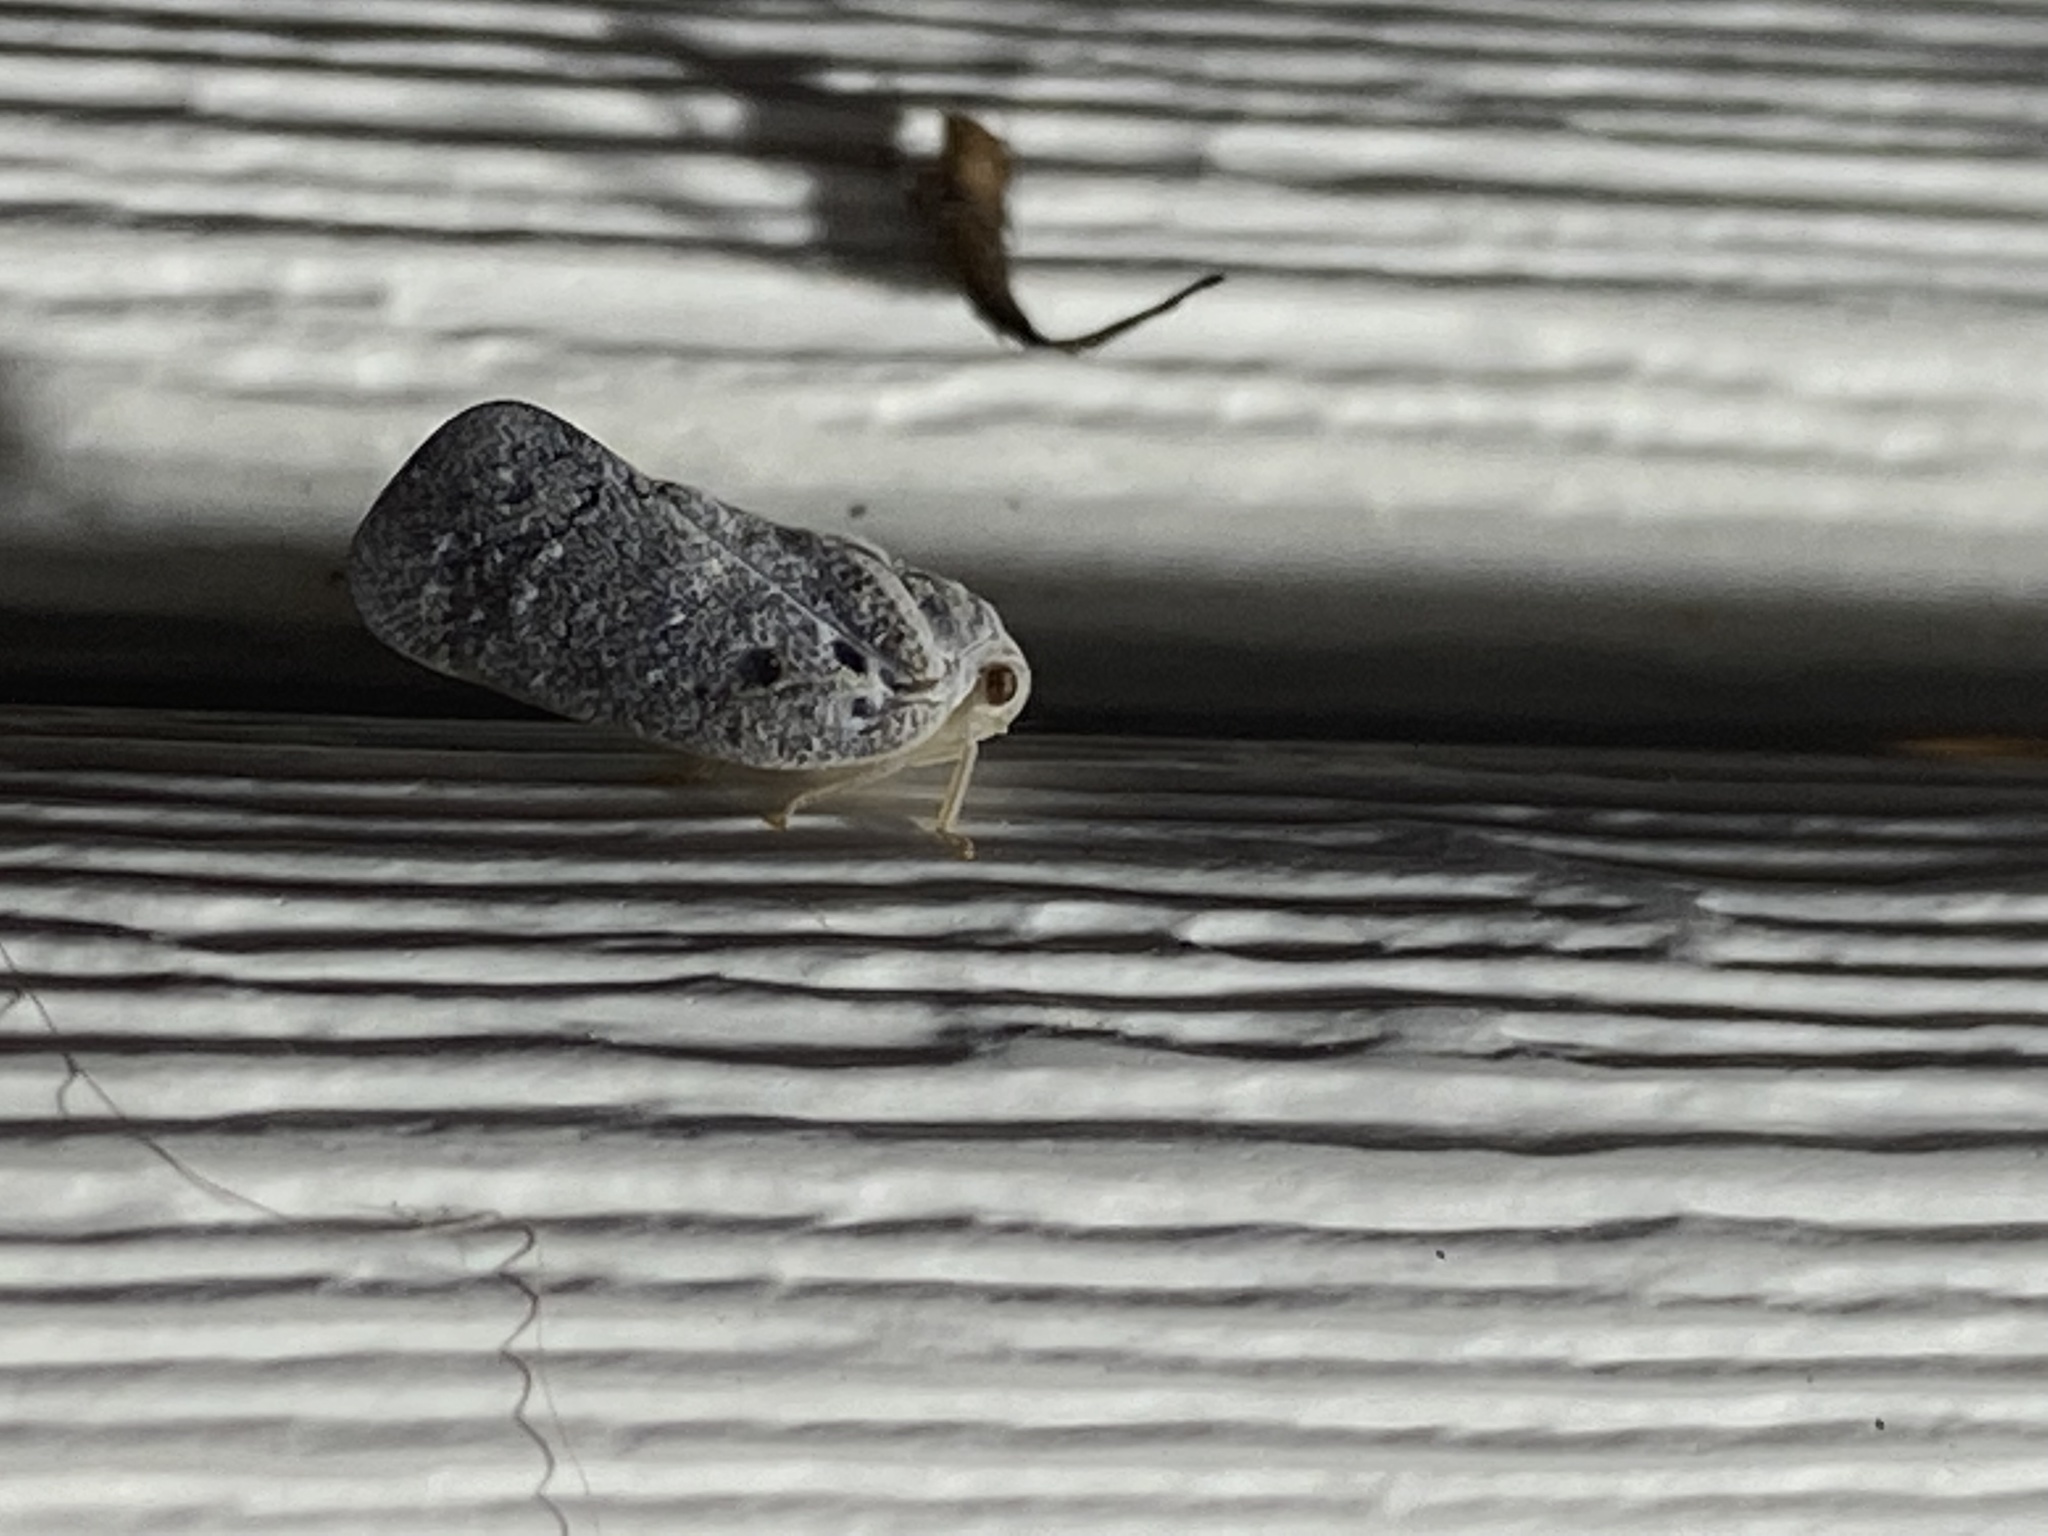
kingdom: Animalia
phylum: Arthropoda
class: Insecta
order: Hemiptera
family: Flatidae
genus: Metcalfa
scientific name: Metcalfa pruinosa
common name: Citrus flatid planthopper
